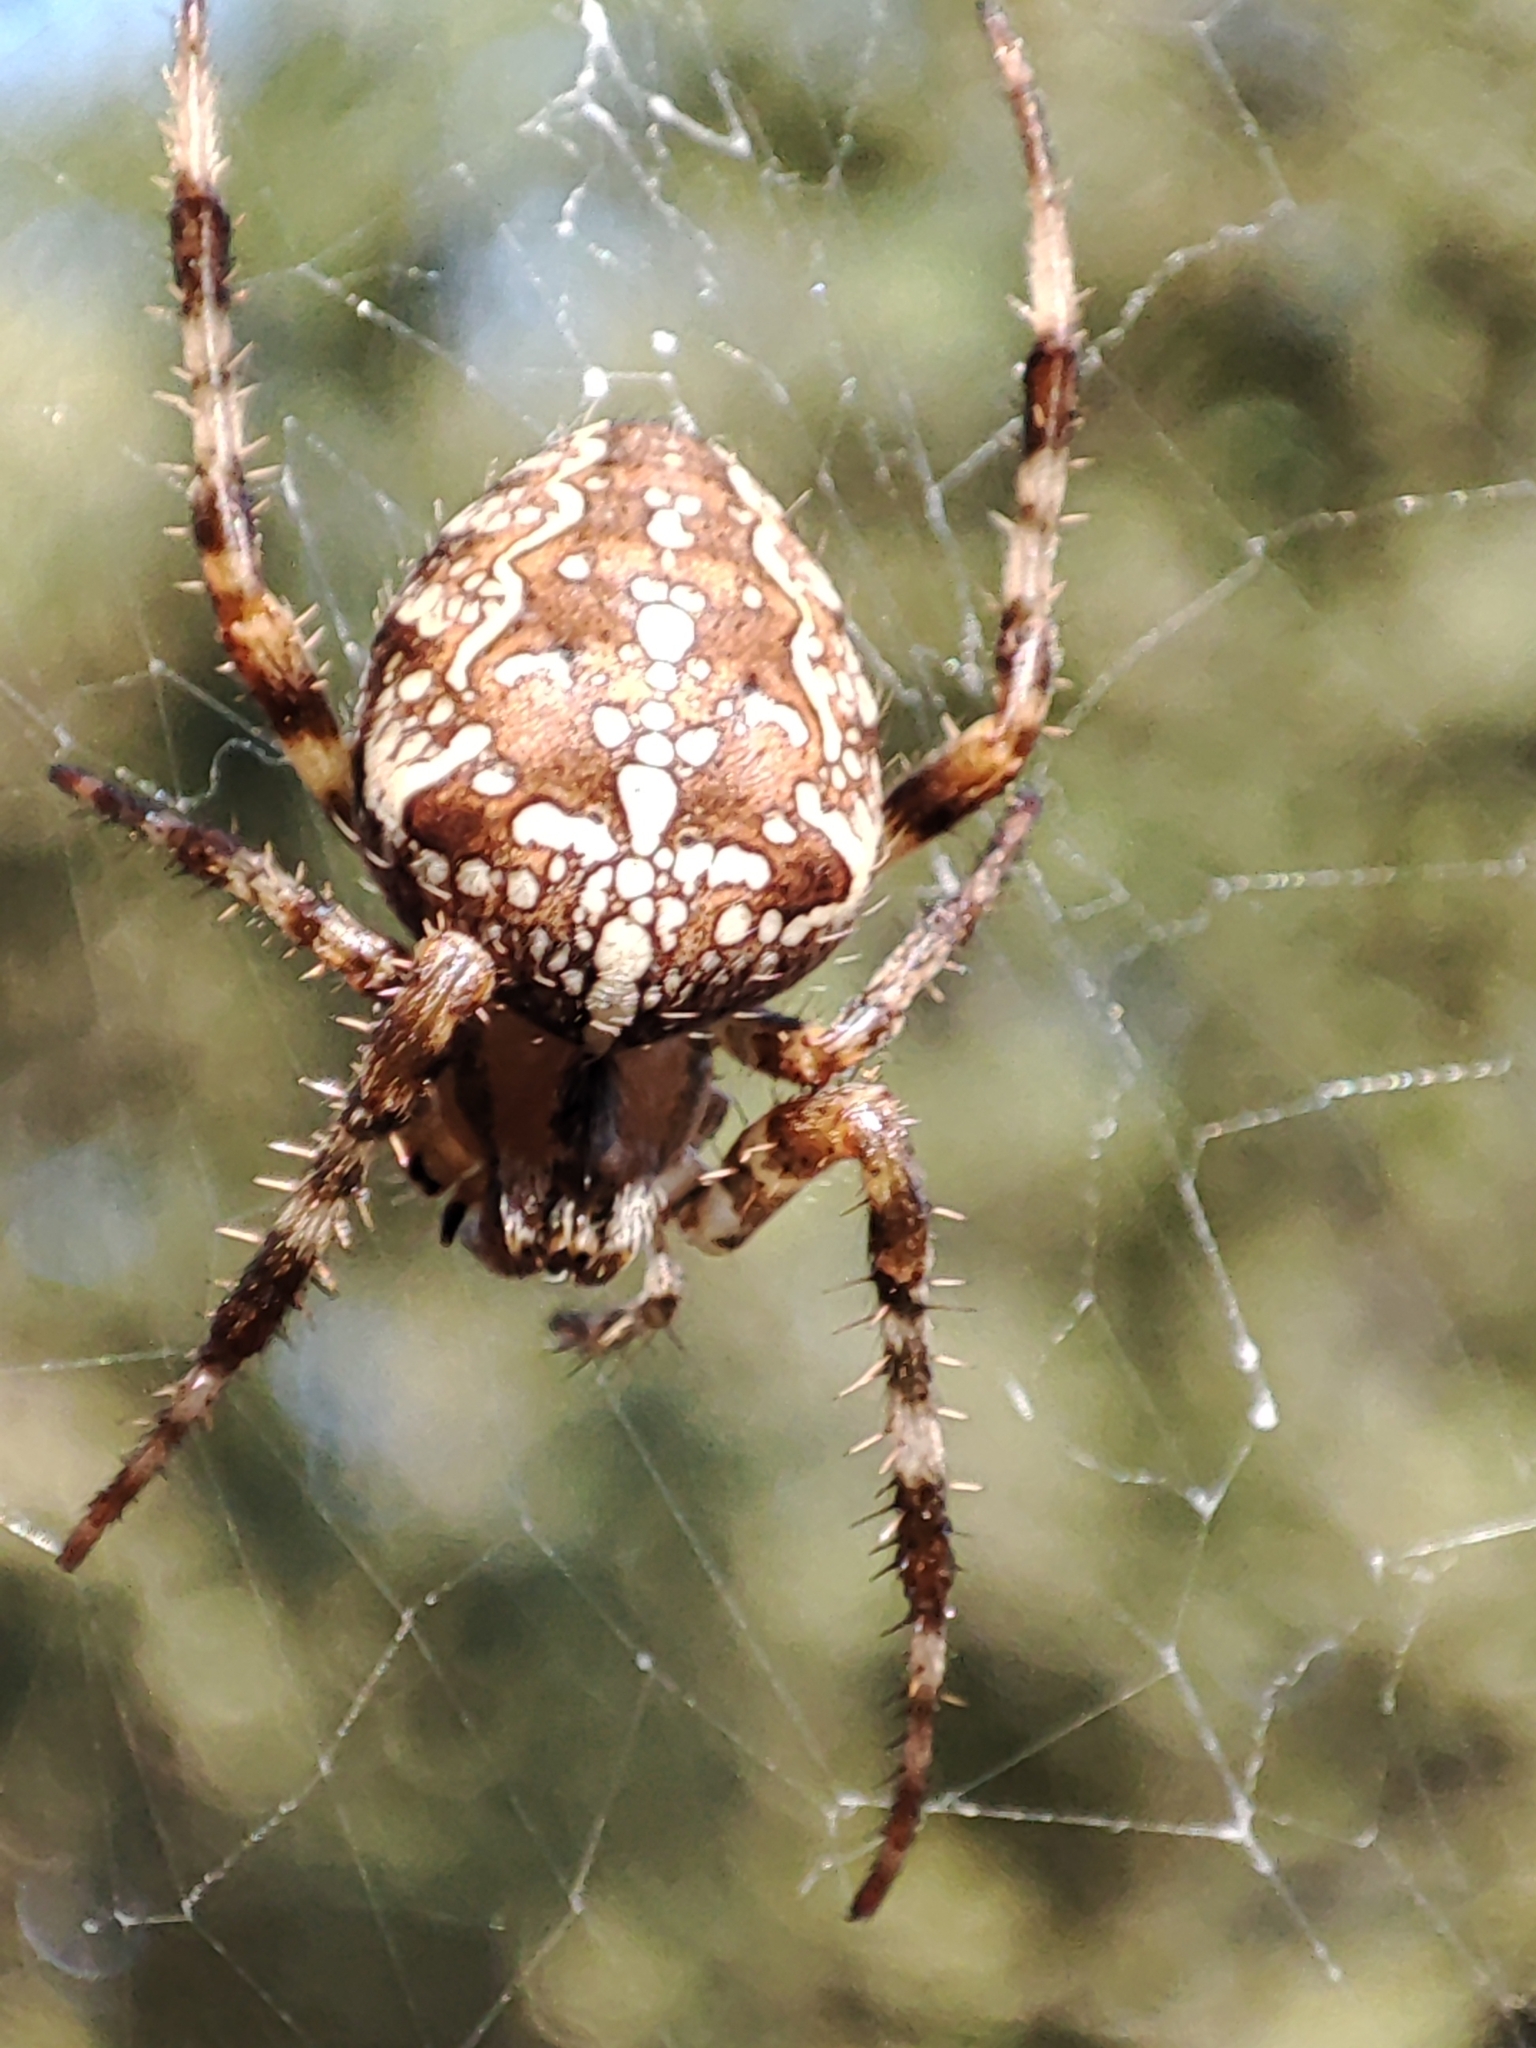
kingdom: Animalia
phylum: Arthropoda
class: Arachnida
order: Araneae
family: Araneidae
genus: Araneus
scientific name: Araneus diadematus
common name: Cross orbweaver
